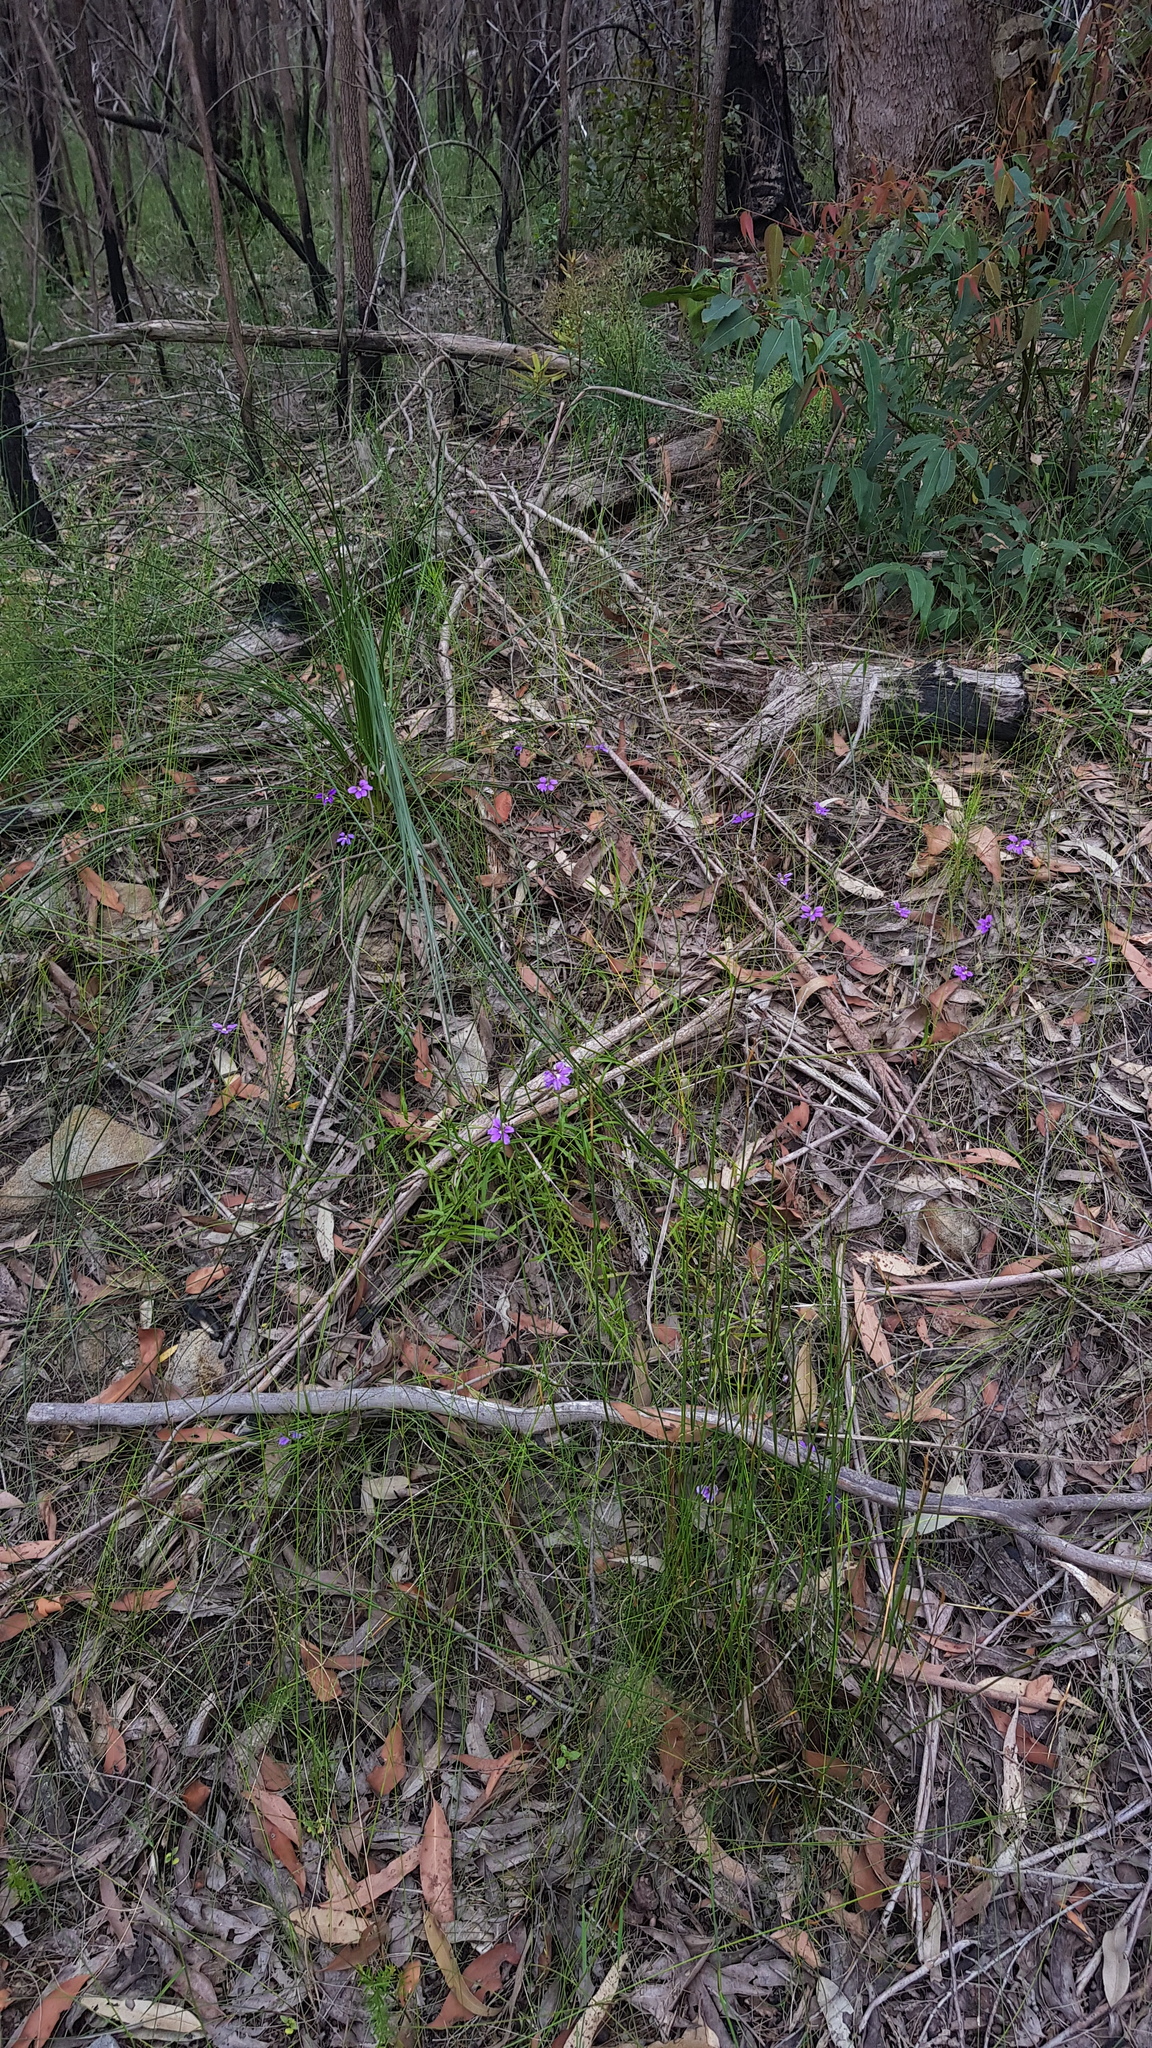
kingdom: Plantae
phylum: Tracheophyta
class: Magnoliopsida
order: Asterales
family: Goodeniaceae
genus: Scaevola
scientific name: Scaevola ramosissima
